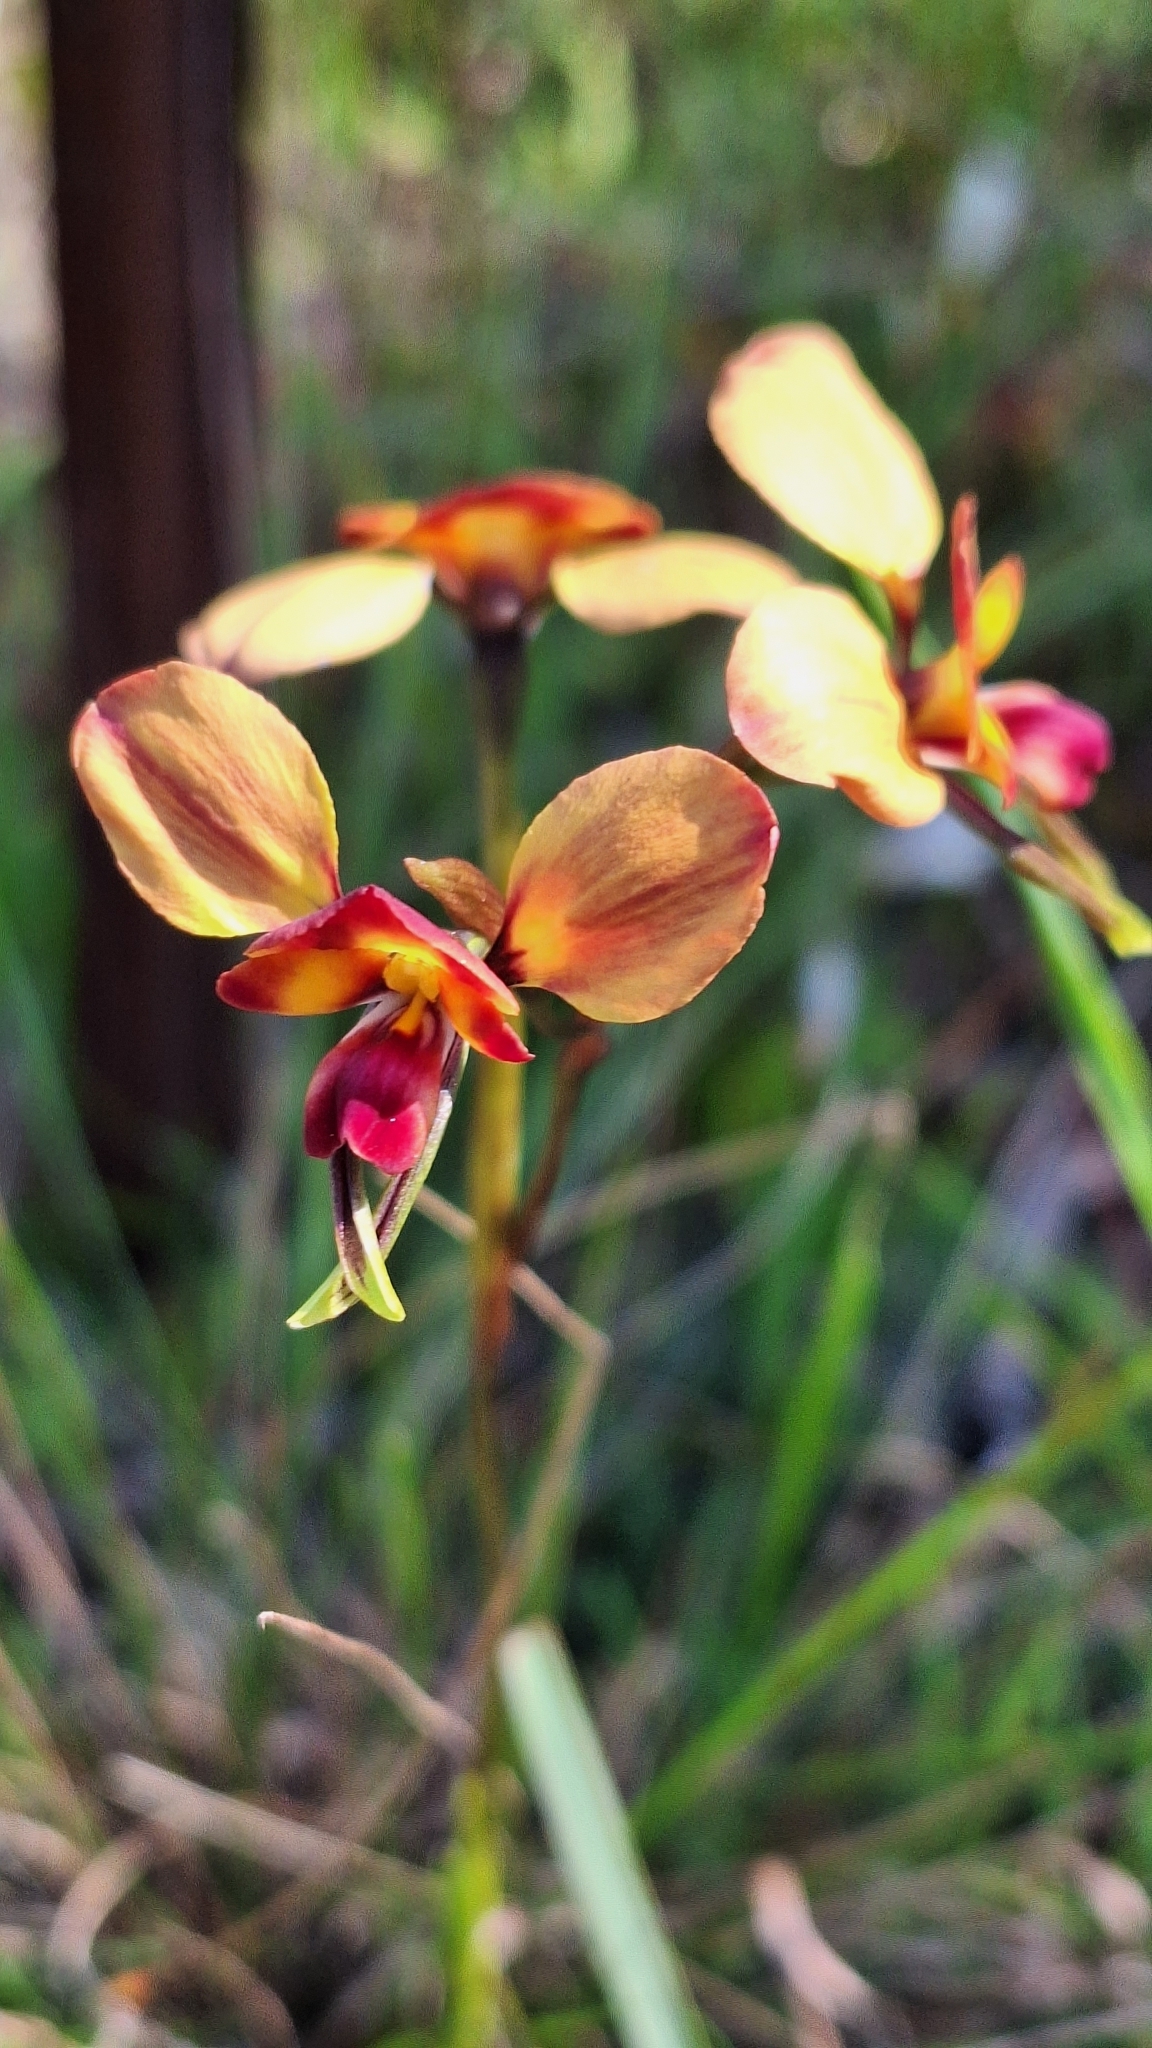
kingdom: Plantae
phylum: Tracheophyta
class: Liliopsida
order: Asparagales
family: Orchidaceae
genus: Diuris
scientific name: Diuris orientis
